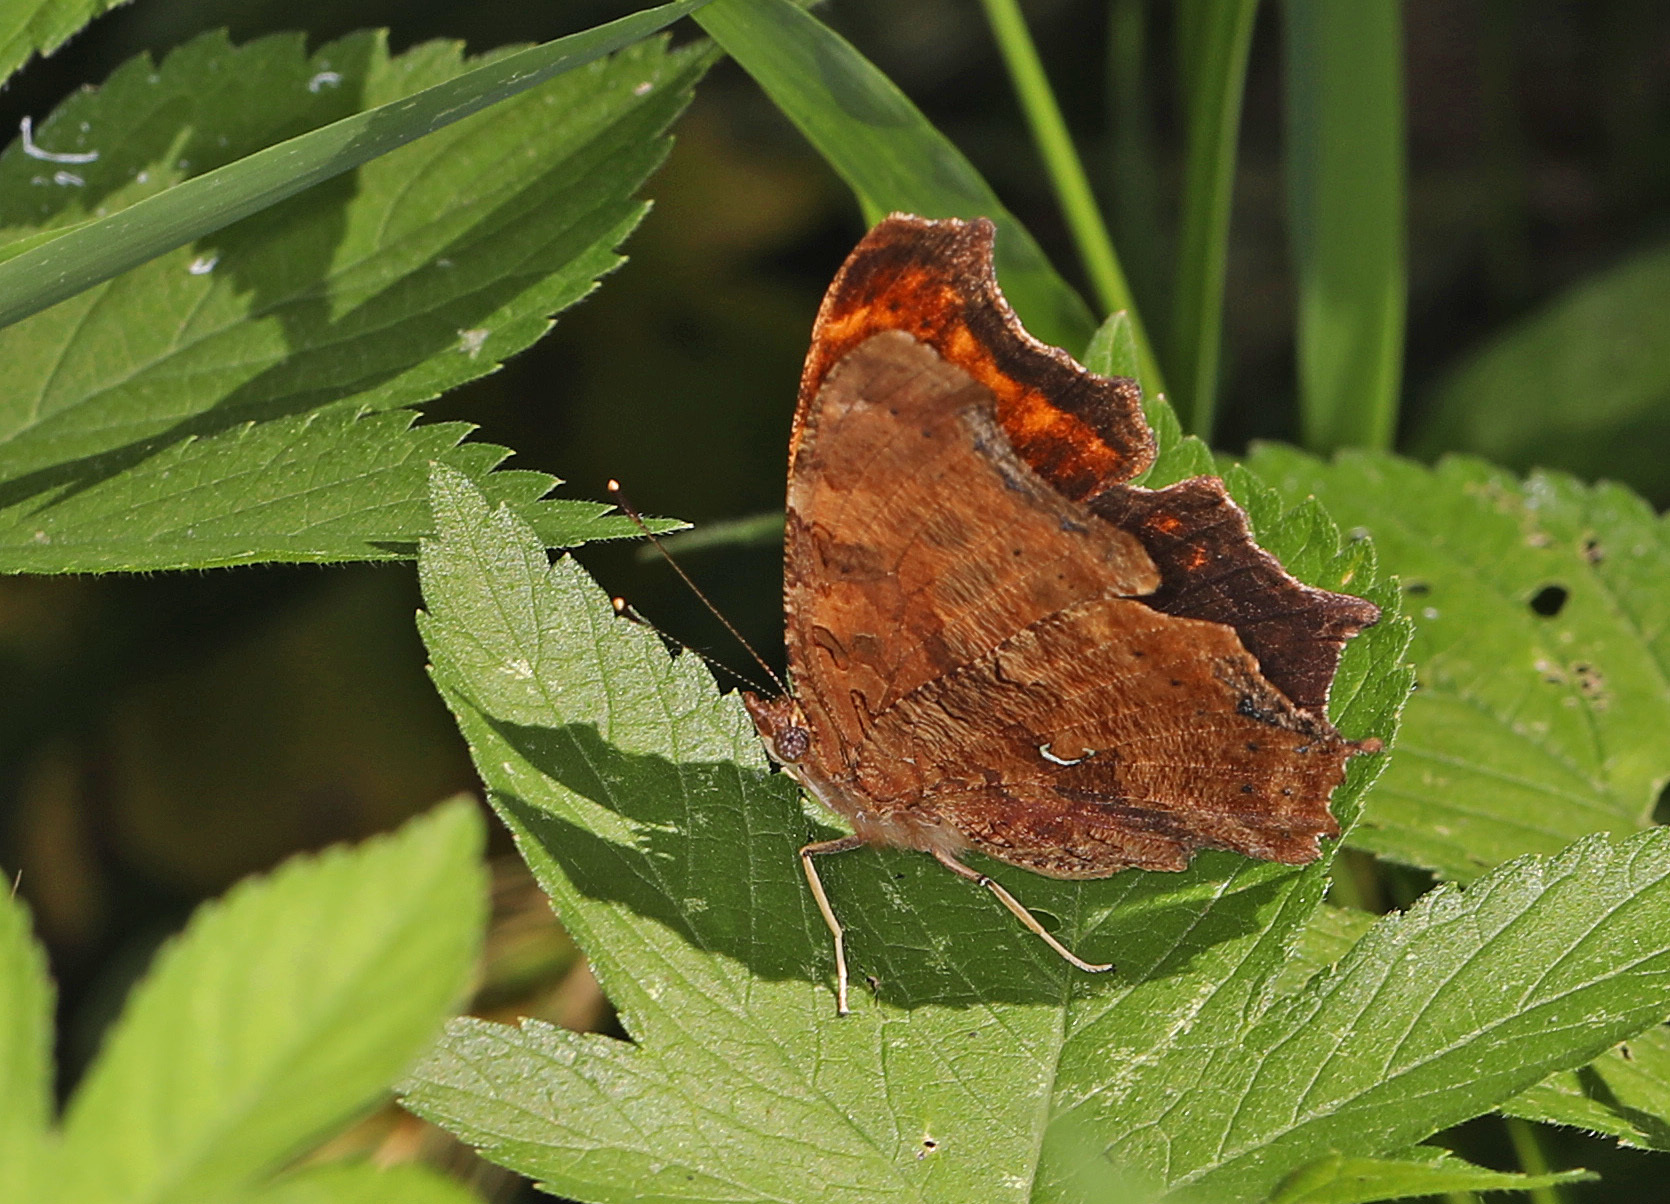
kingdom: Animalia
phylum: Arthropoda
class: Insecta
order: Lepidoptera
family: Nymphalidae
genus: Polygonia
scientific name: Polygonia interrogationis
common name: Question mark
